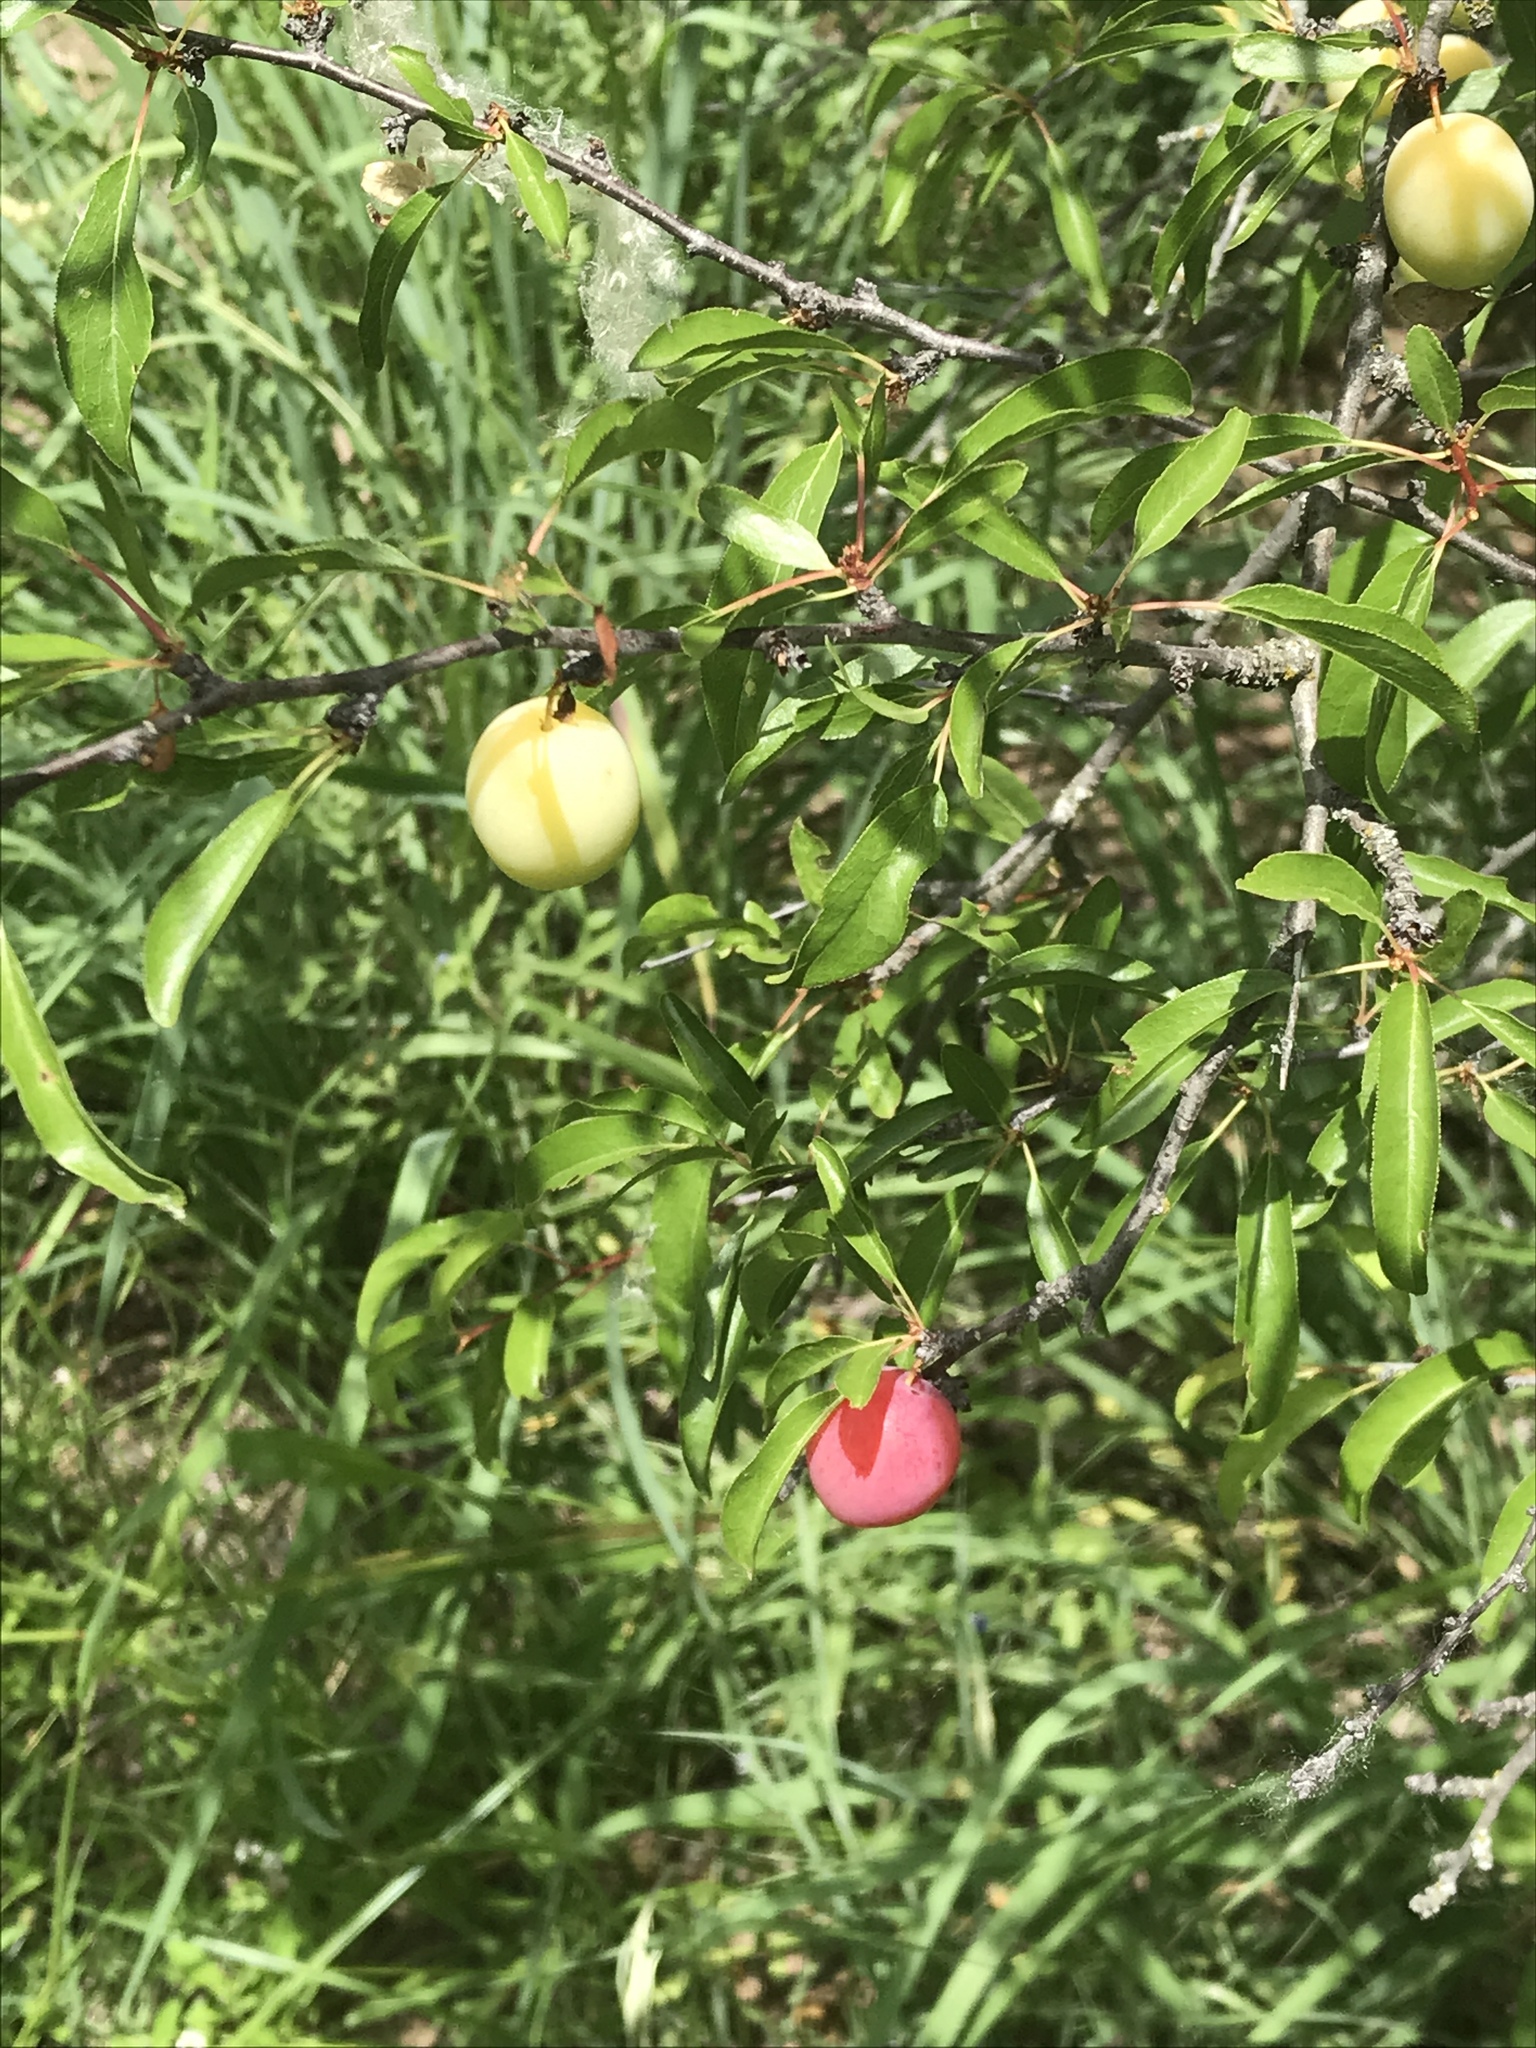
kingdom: Plantae
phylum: Tracheophyta
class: Magnoliopsida
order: Rosales
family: Rosaceae
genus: Prunus
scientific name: Prunus angustifolia
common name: Cherokee plum
